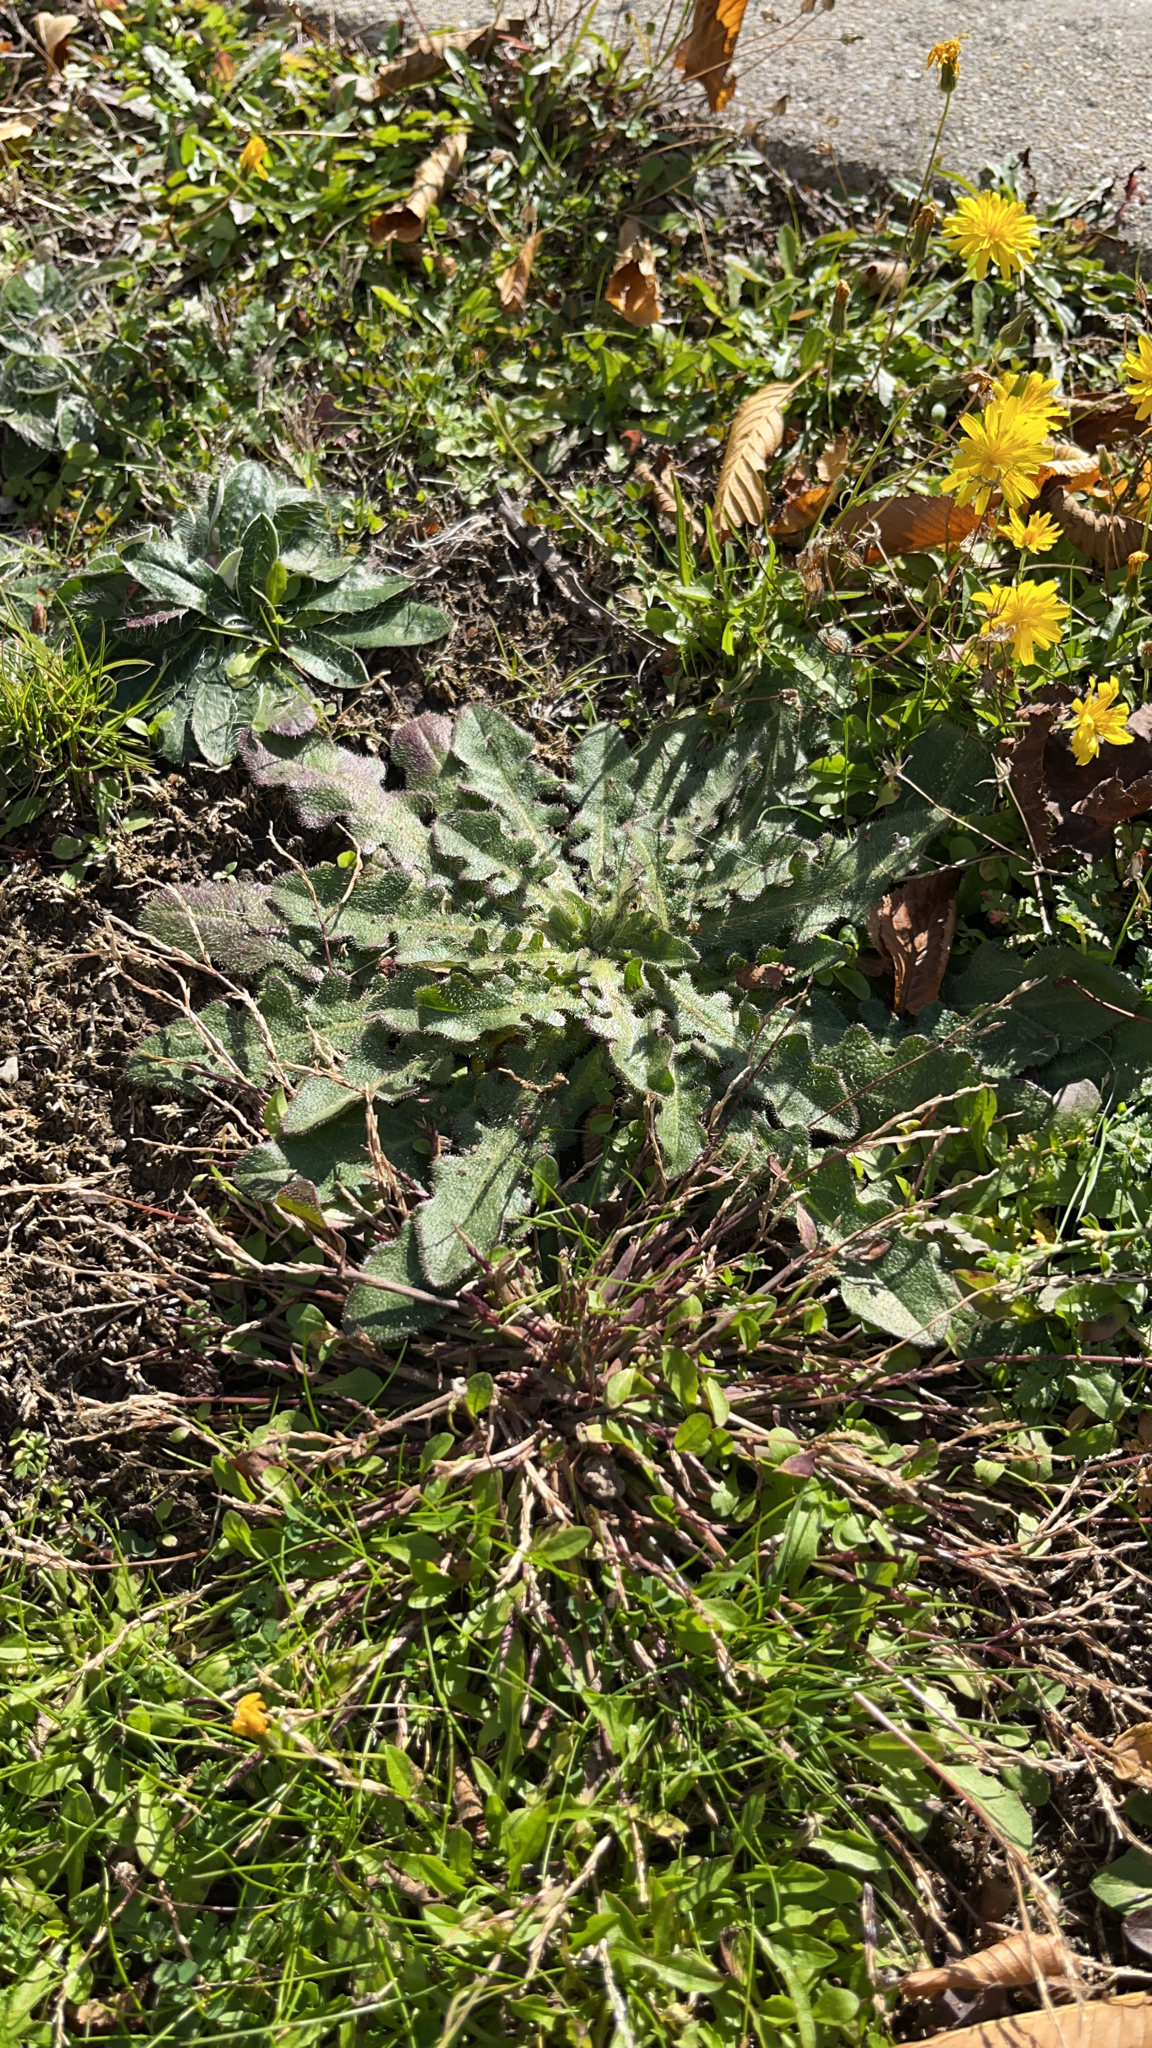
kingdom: Plantae
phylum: Tracheophyta
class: Magnoliopsida
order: Asterales
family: Asteraceae
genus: Hypochaeris
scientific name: Hypochaeris radicata
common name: Flatweed
